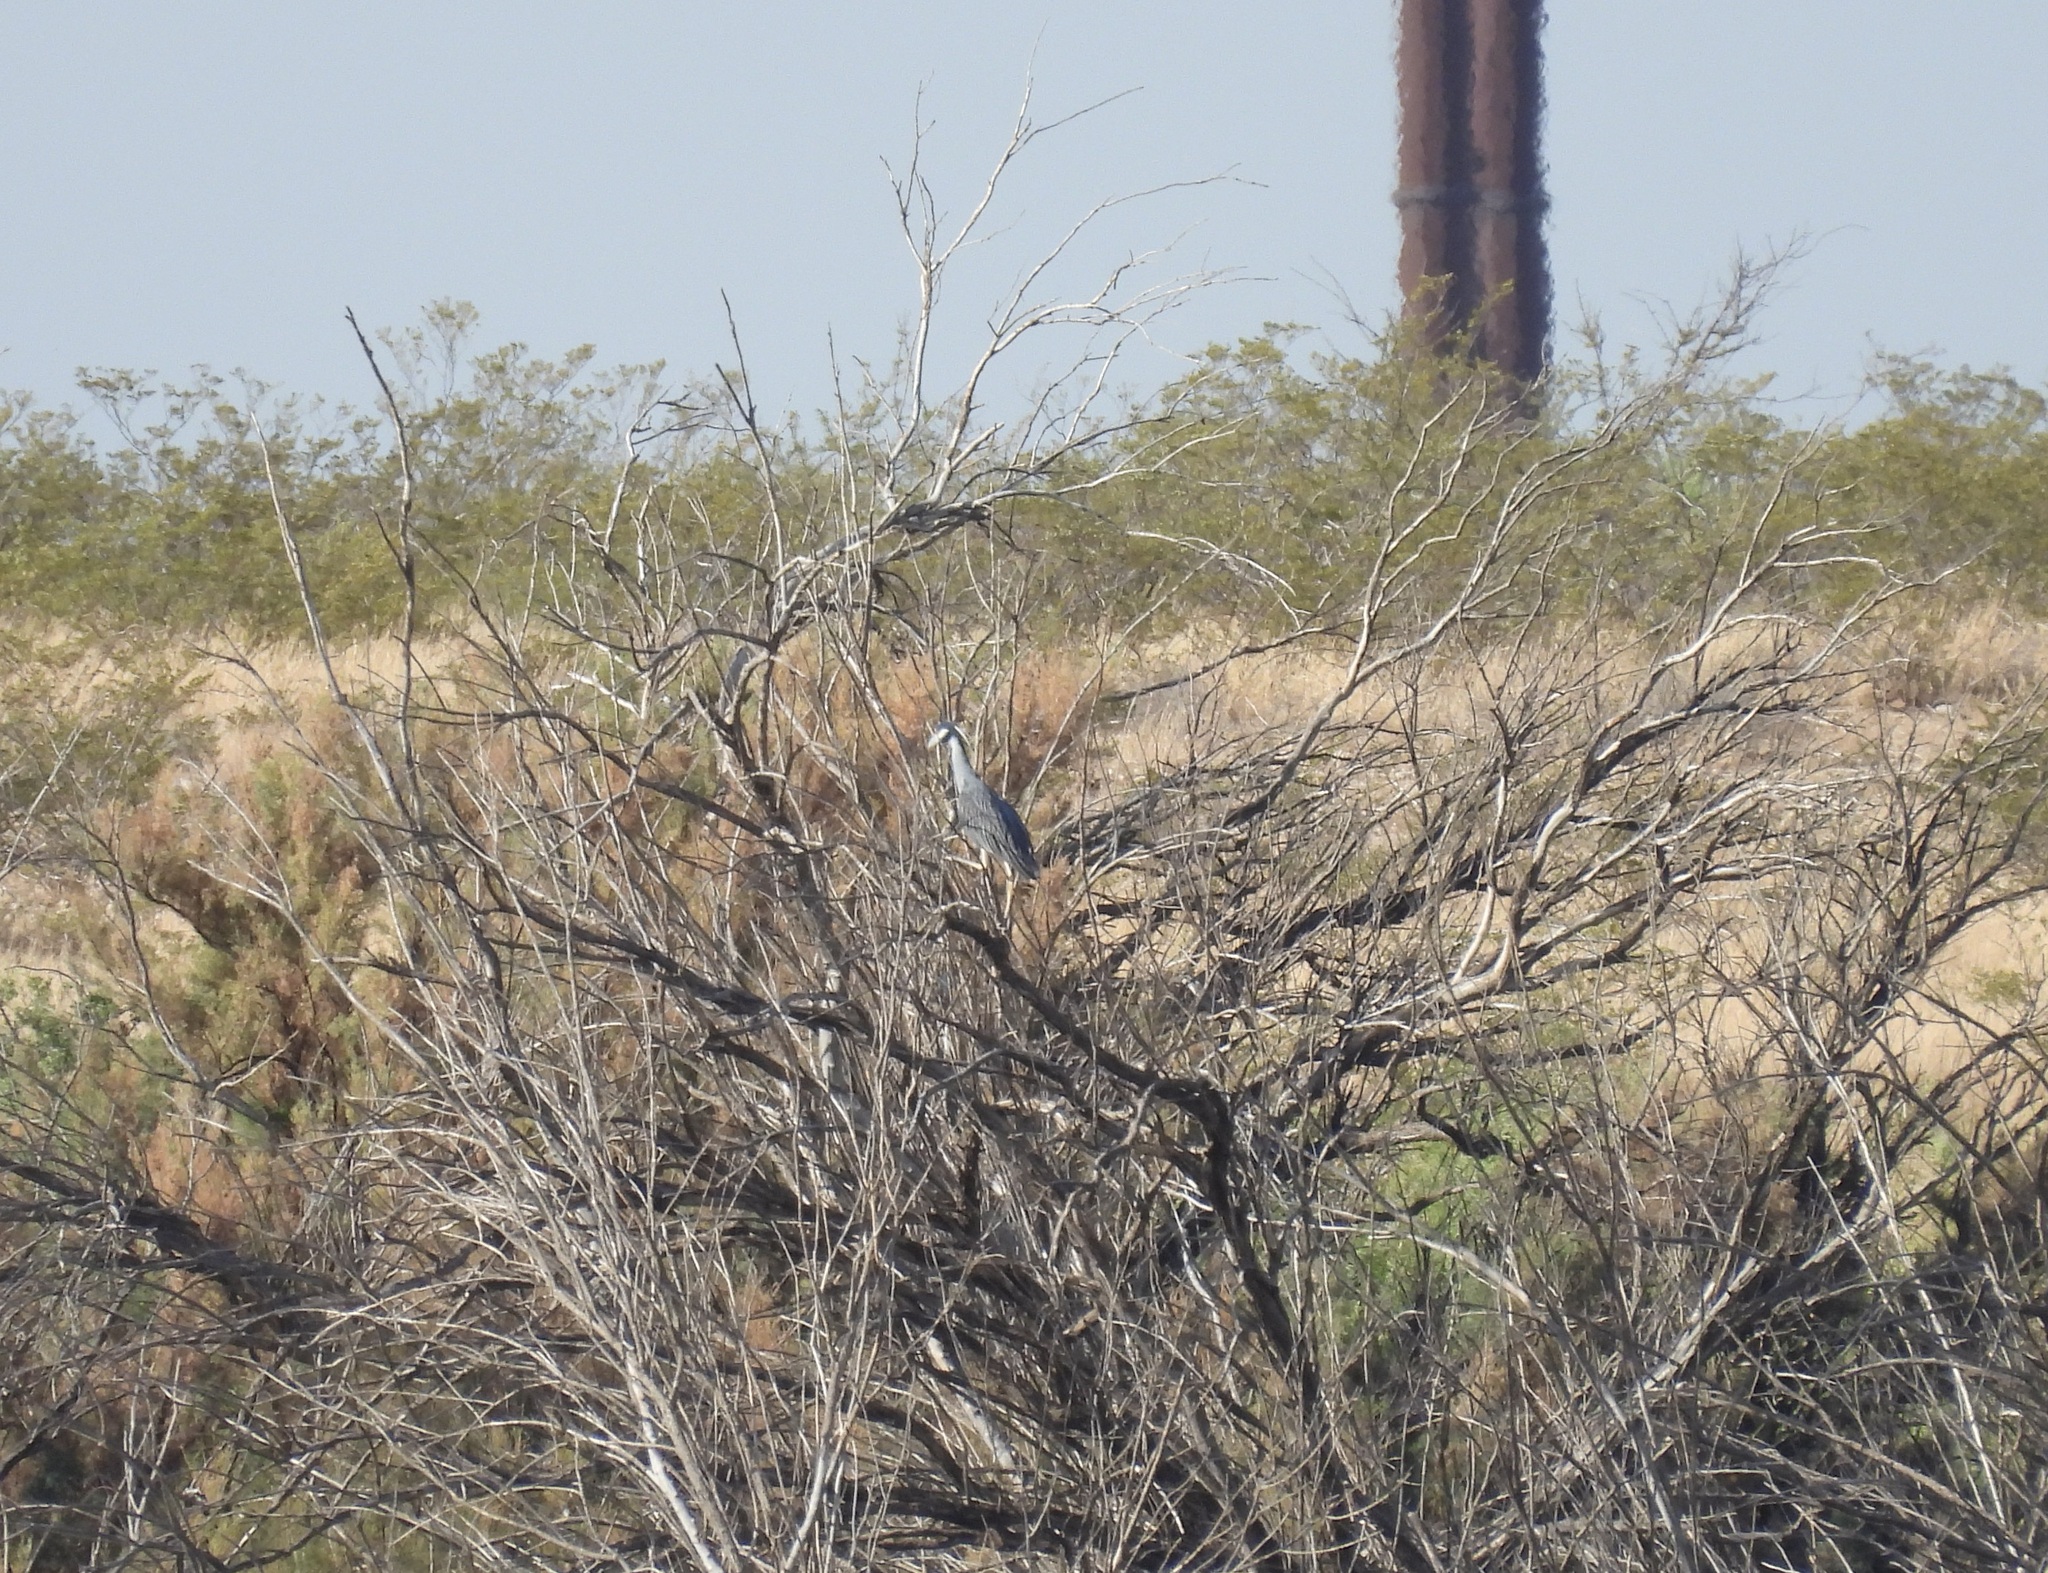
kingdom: Animalia
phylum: Chordata
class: Aves
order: Pelecaniformes
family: Ardeidae
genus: Nyctanassa
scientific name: Nyctanassa violacea
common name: Yellow-crowned night heron
